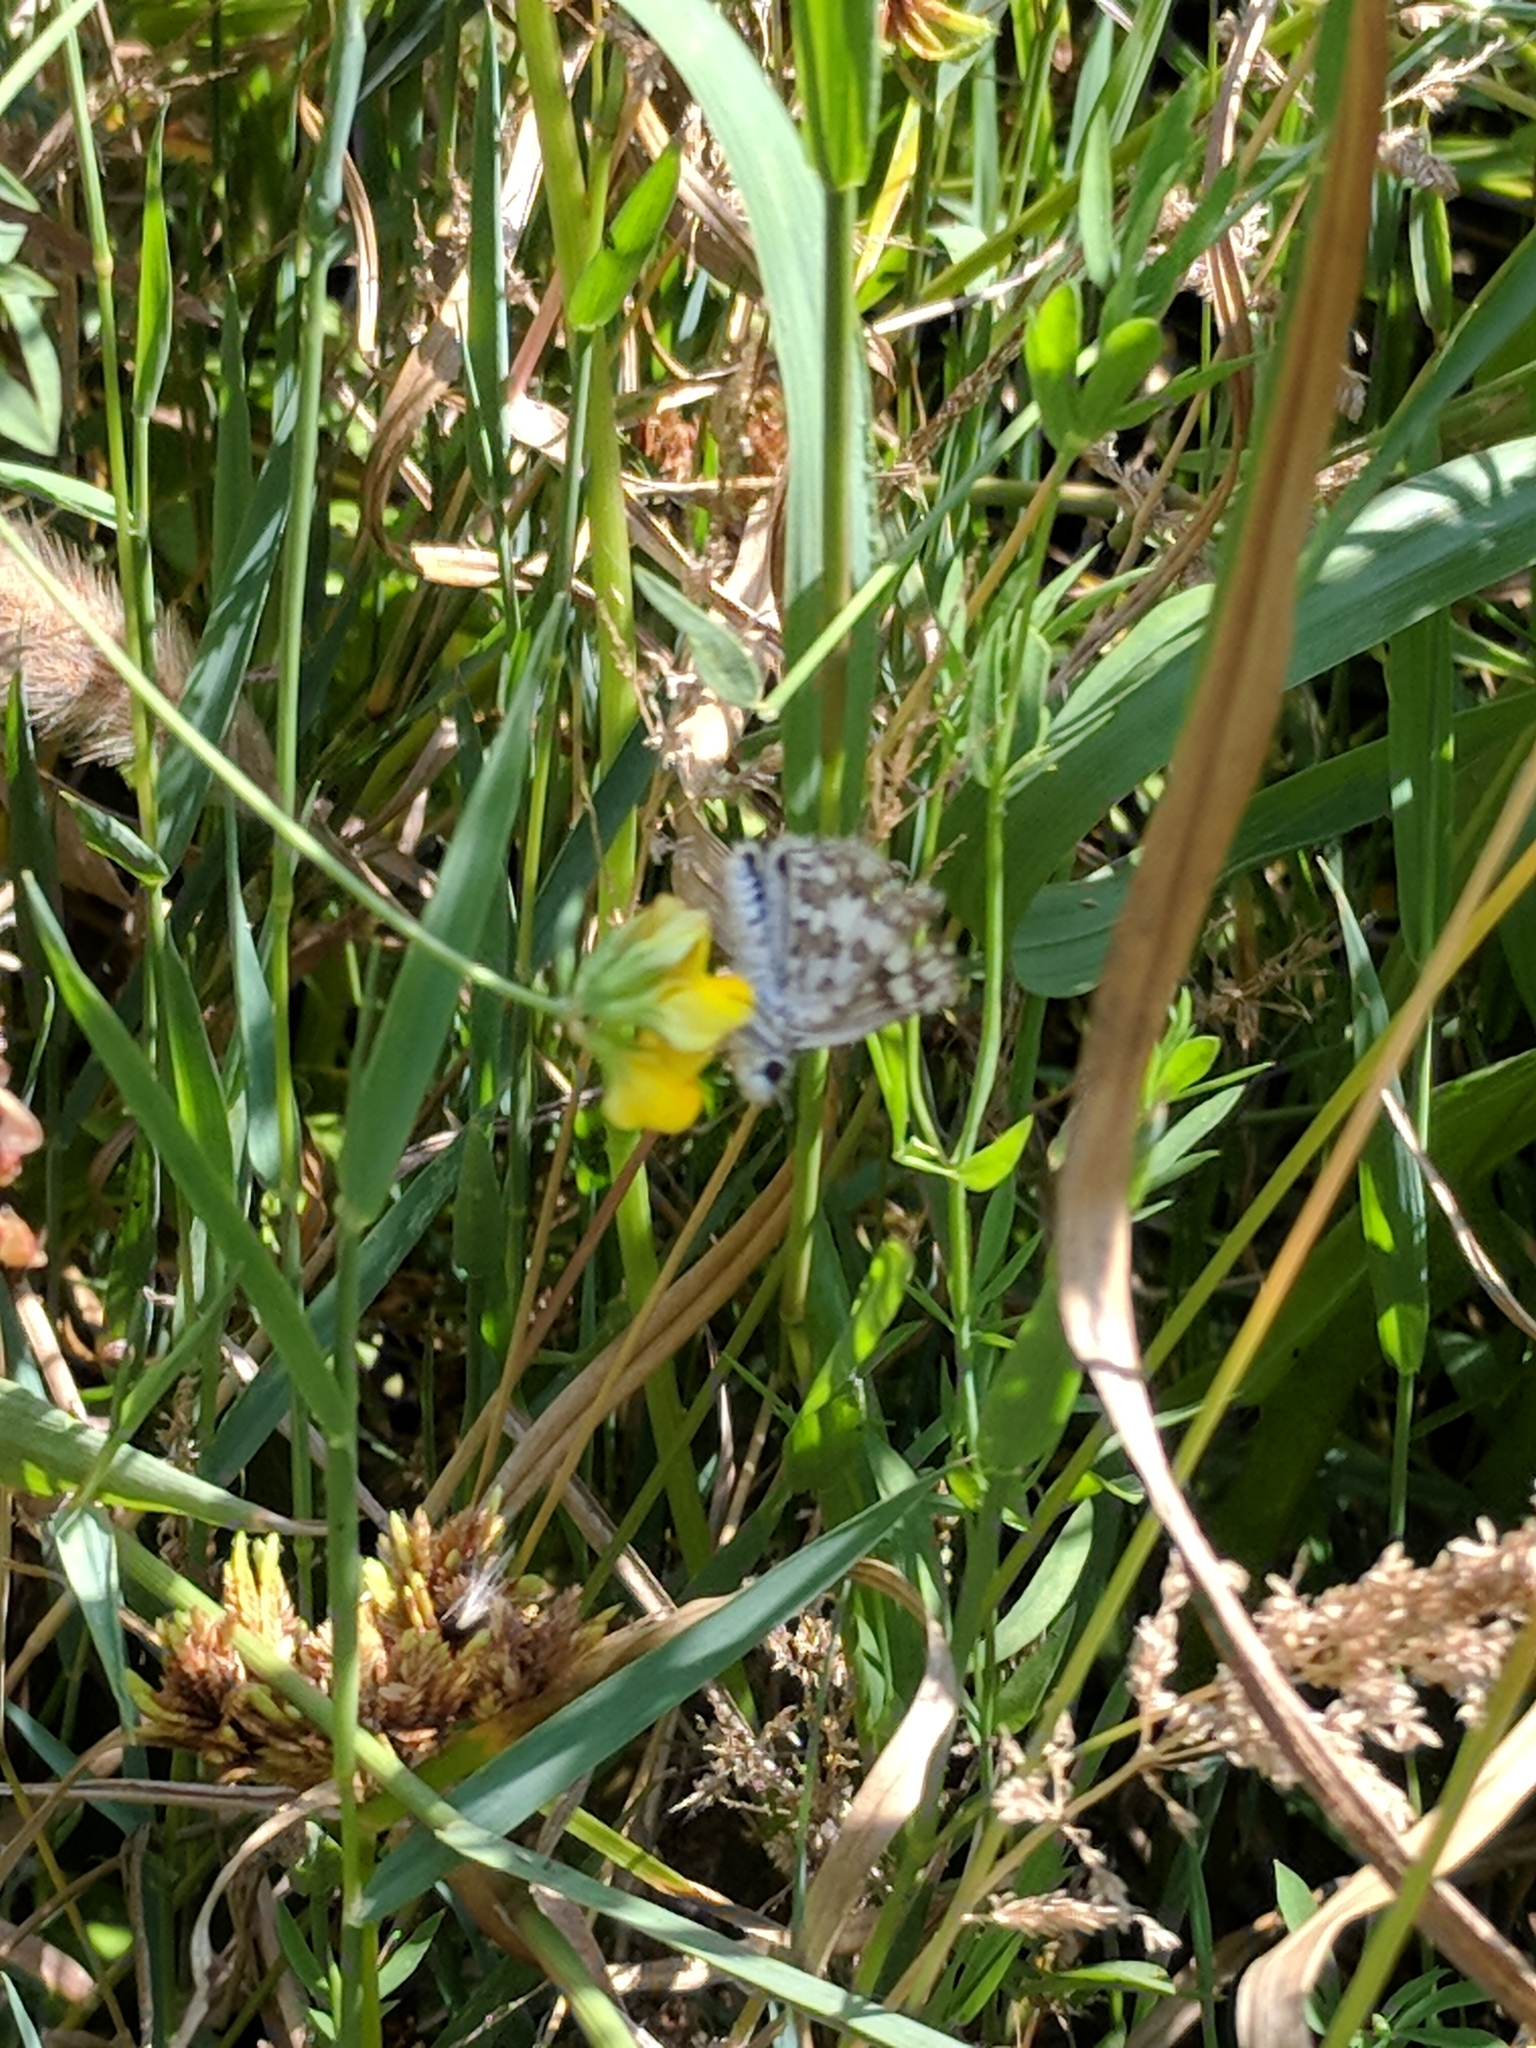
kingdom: Animalia
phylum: Arthropoda
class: Insecta
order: Lepidoptera
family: Hesperiidae
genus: Burnsius
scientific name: Burnsius communis
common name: Common checkered-skipper
